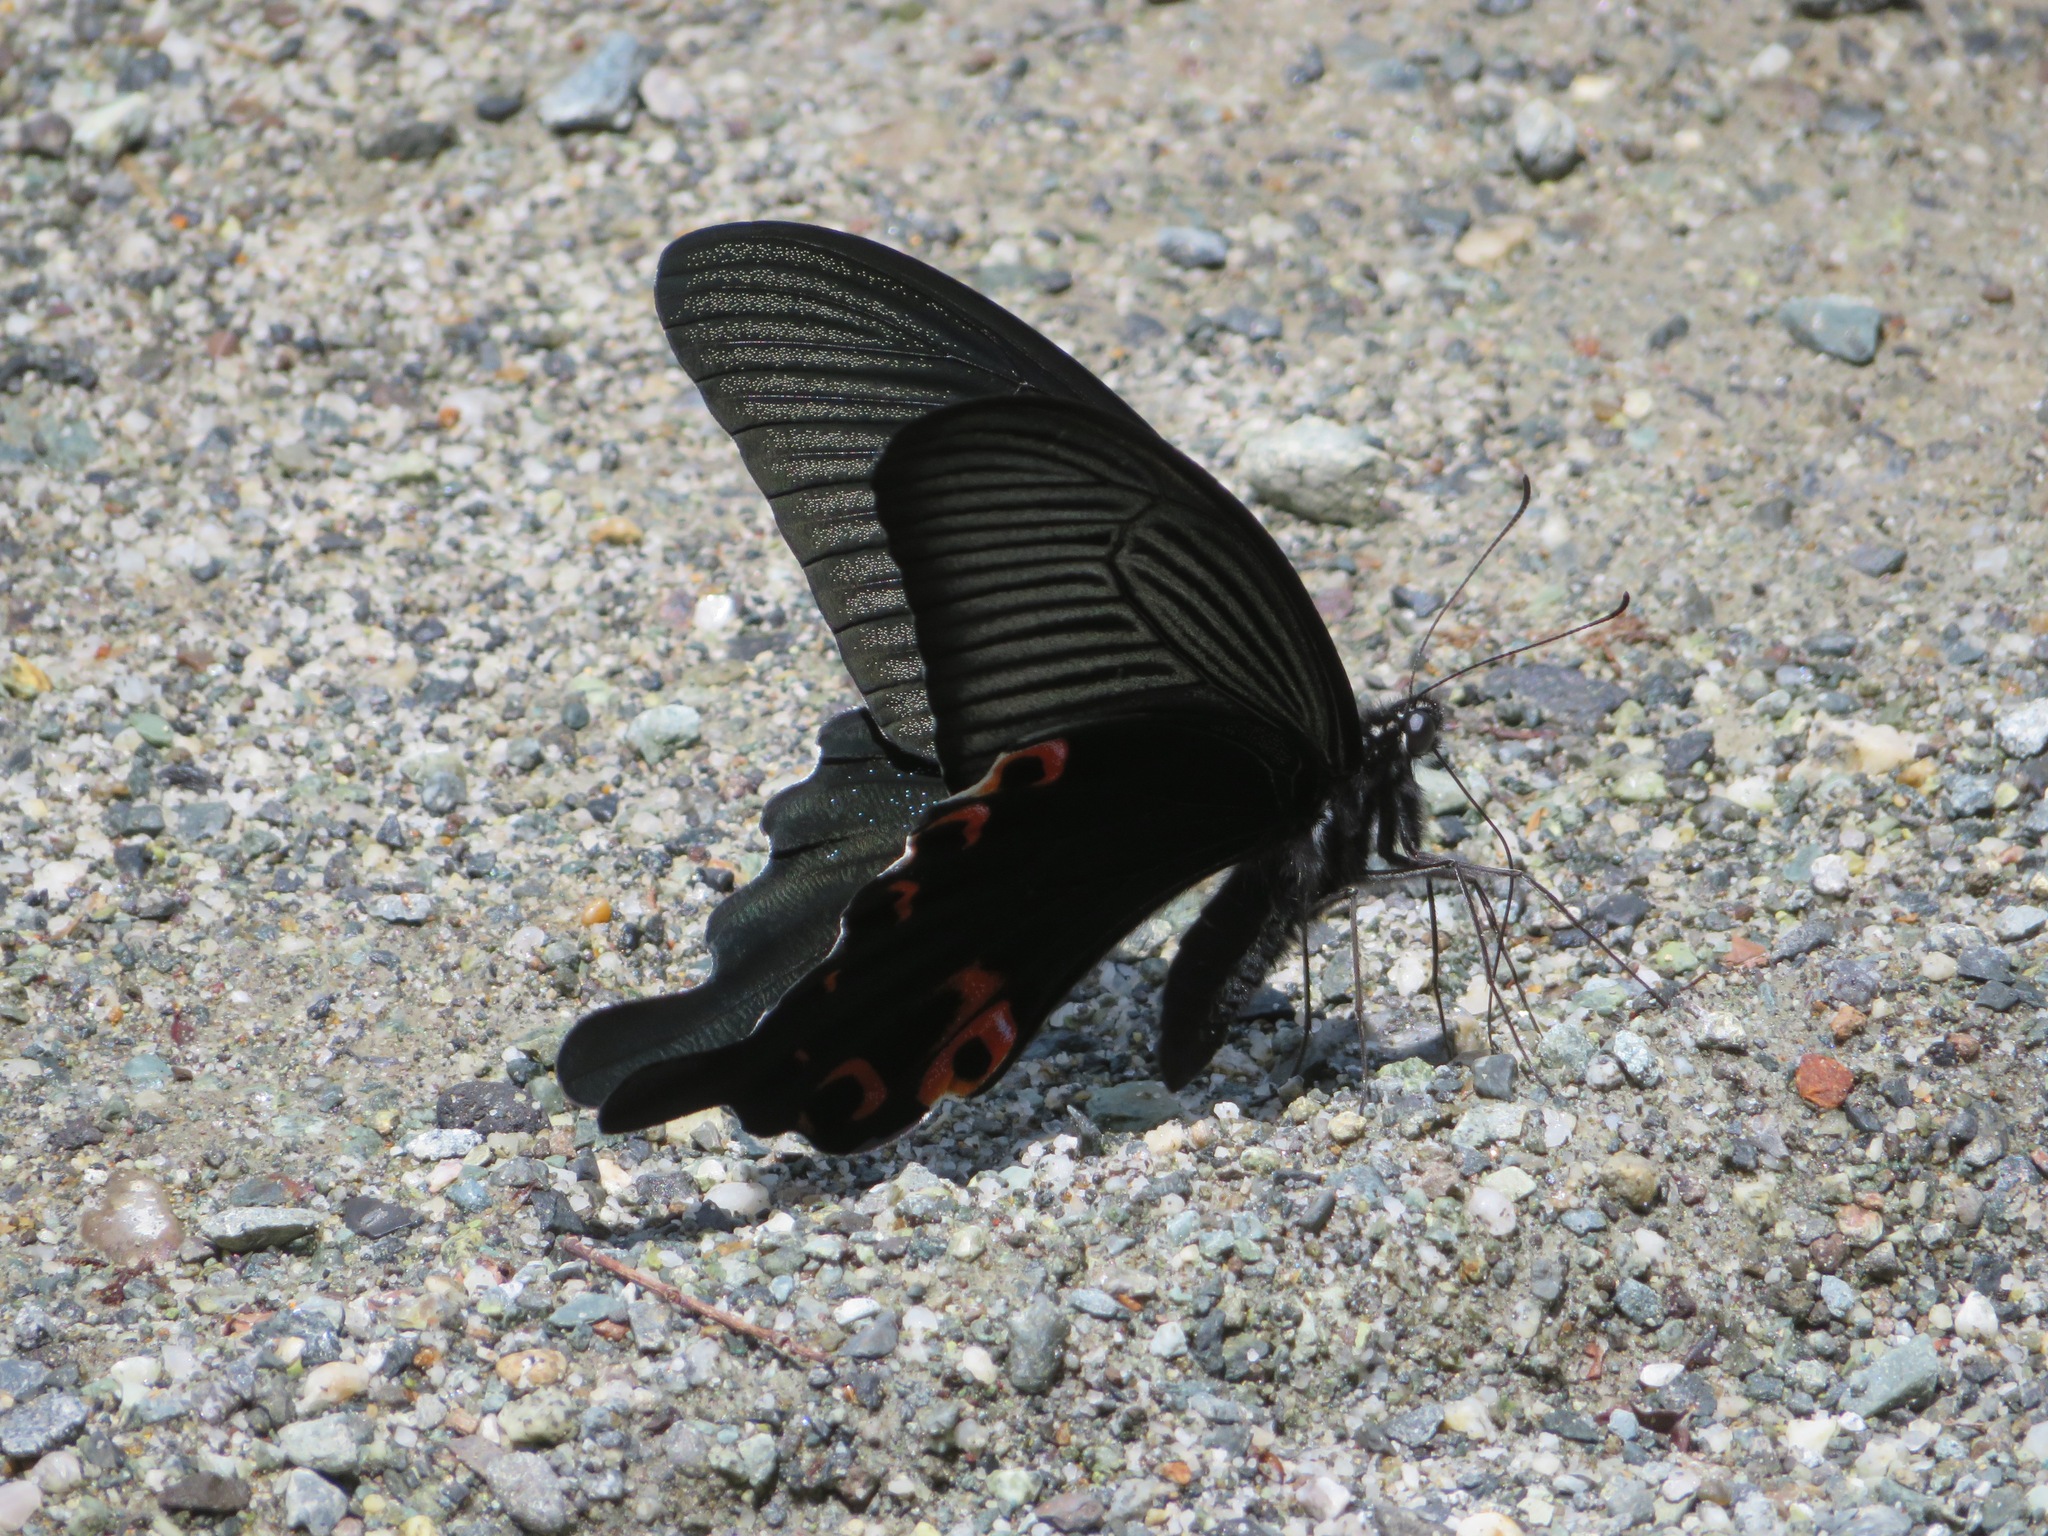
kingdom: Animalia
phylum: Arthropoda
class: Insecta
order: Lepidoptera
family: Papilionidae
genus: Papilio
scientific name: Papilio demetrius
